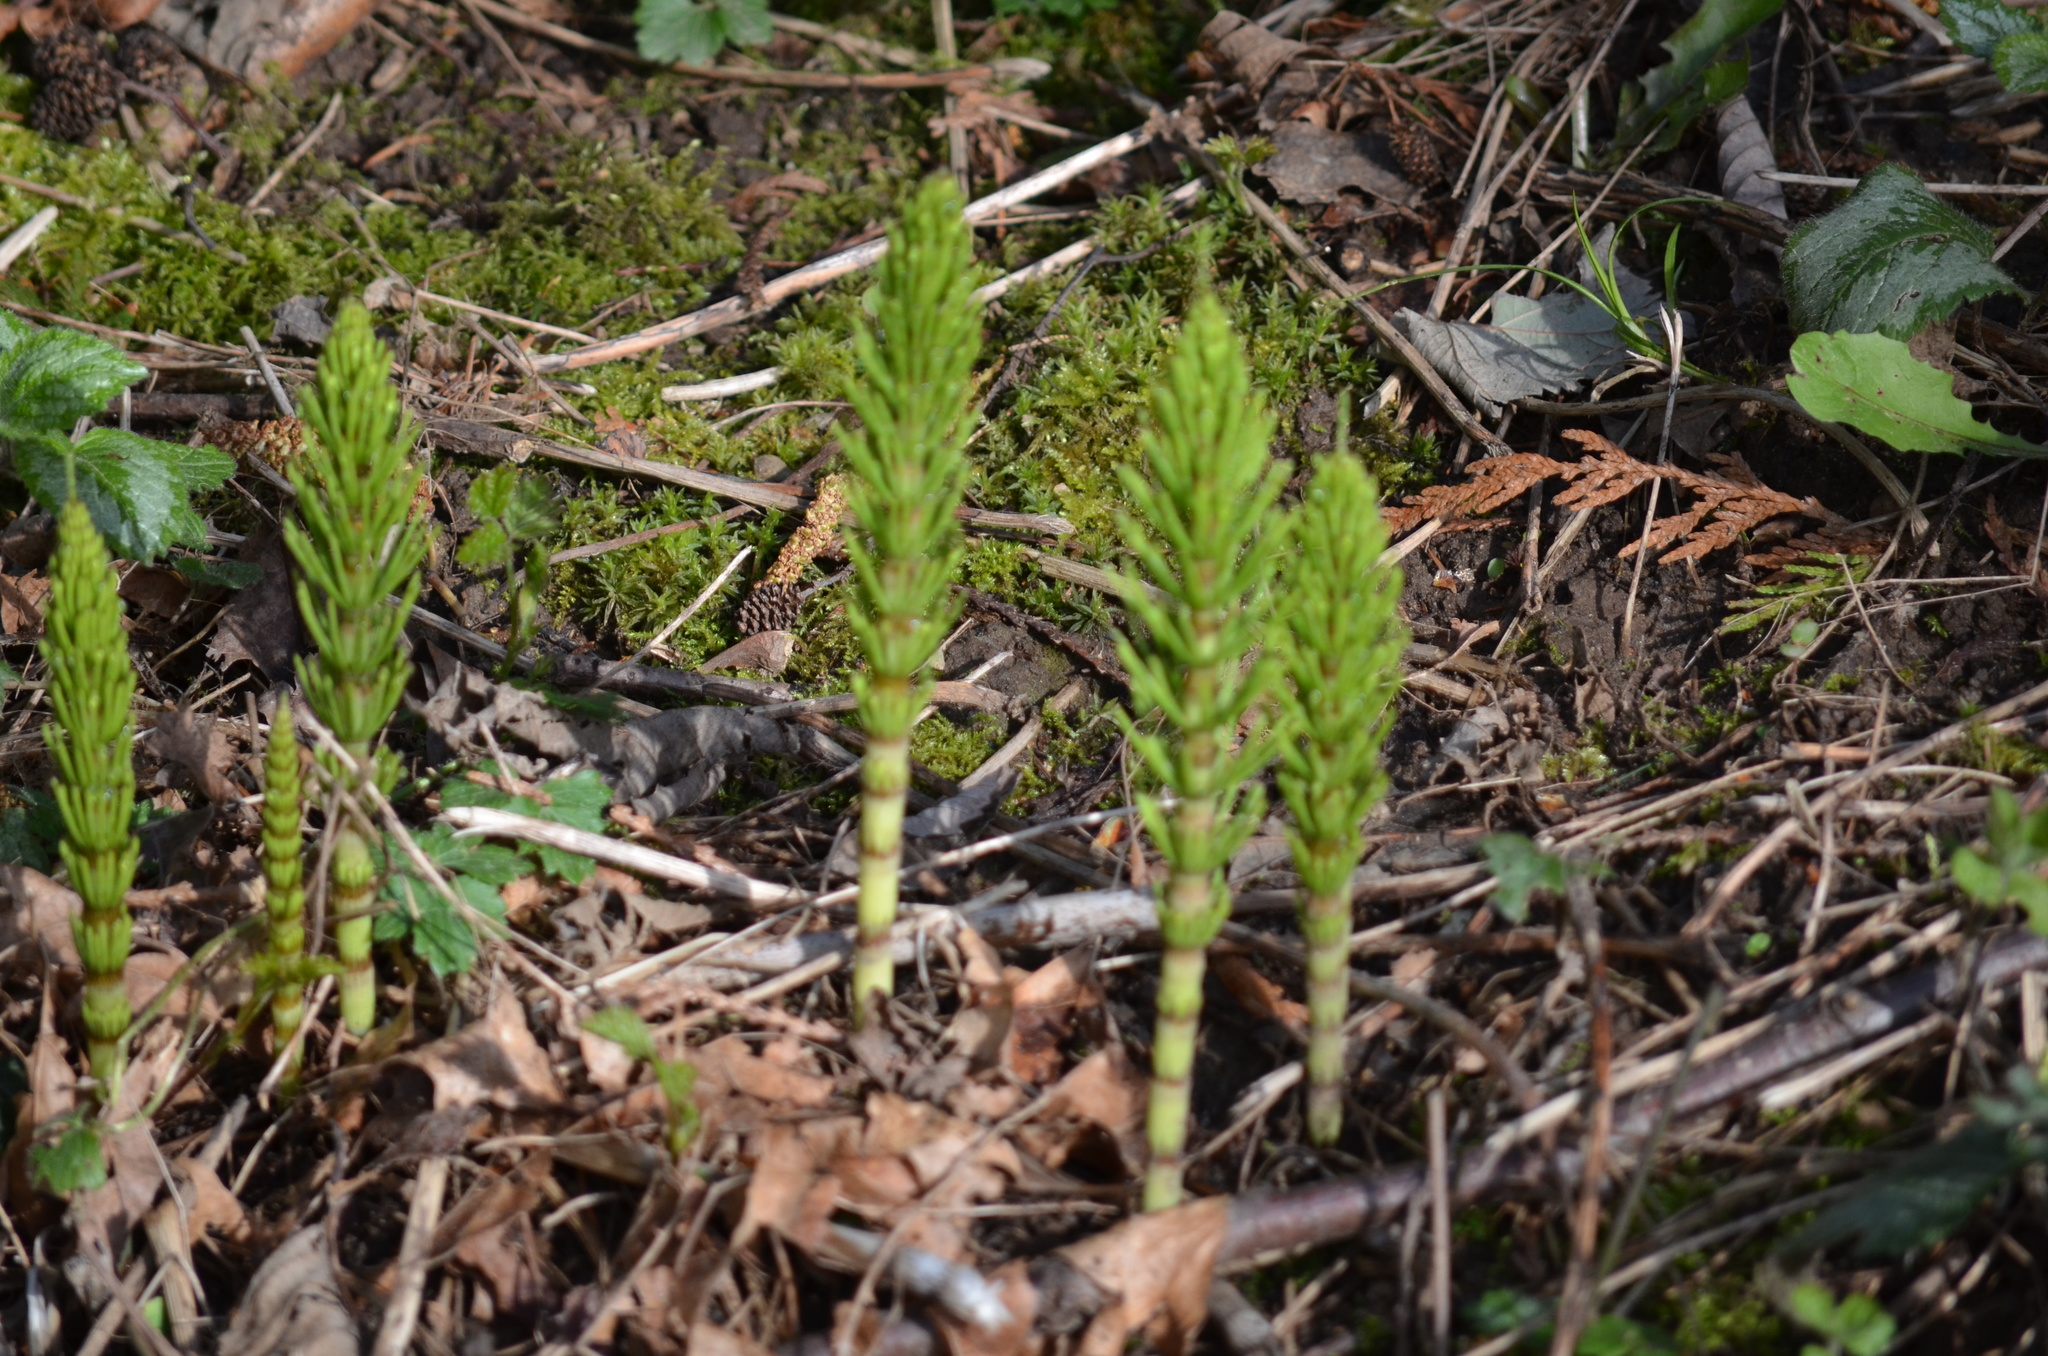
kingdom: Plantae
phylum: Tracheophyta
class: Polypodiopsida
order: Equisetales
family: Equisetaceae
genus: Equisetum
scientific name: Equisetum braunii
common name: Braun's horsetail
